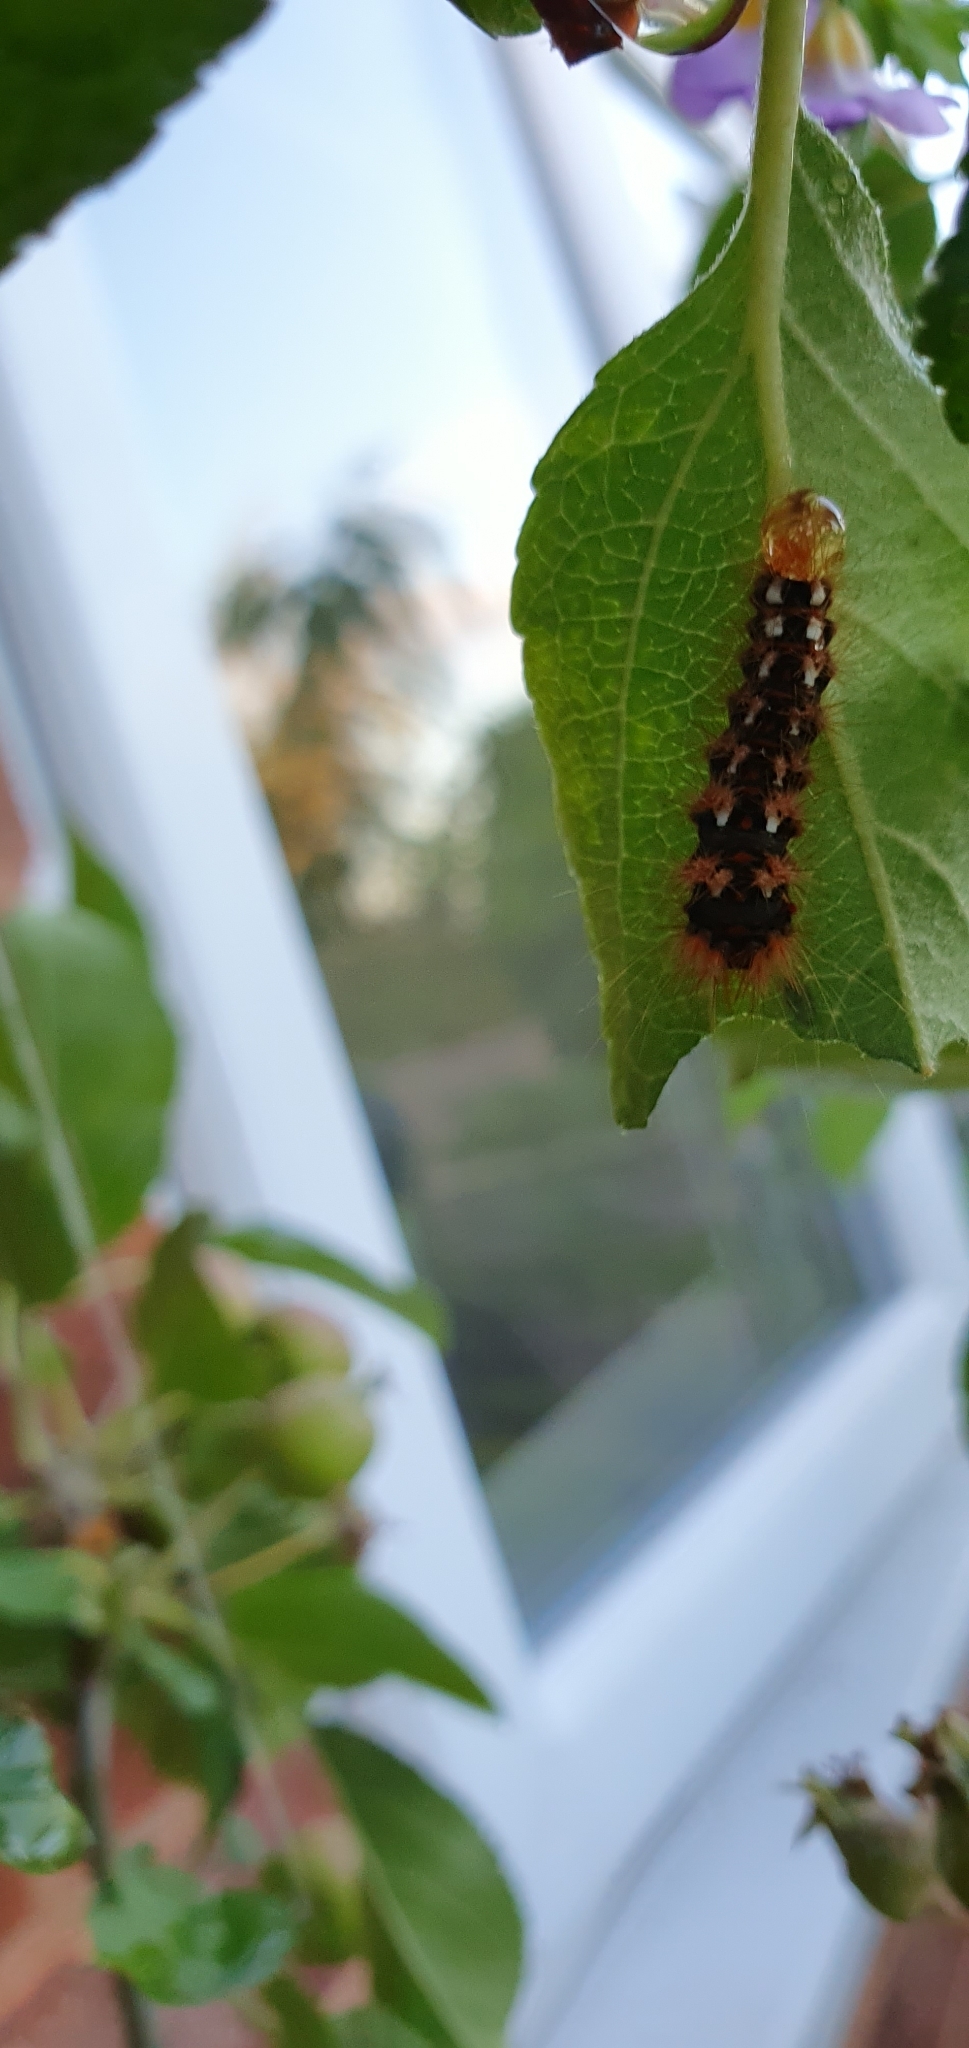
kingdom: Animalia
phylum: Arthropoda
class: Insecta
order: Lepidoptera
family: Noctuidae
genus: Acronicta
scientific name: Acronicta rumicis
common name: Knot grass
